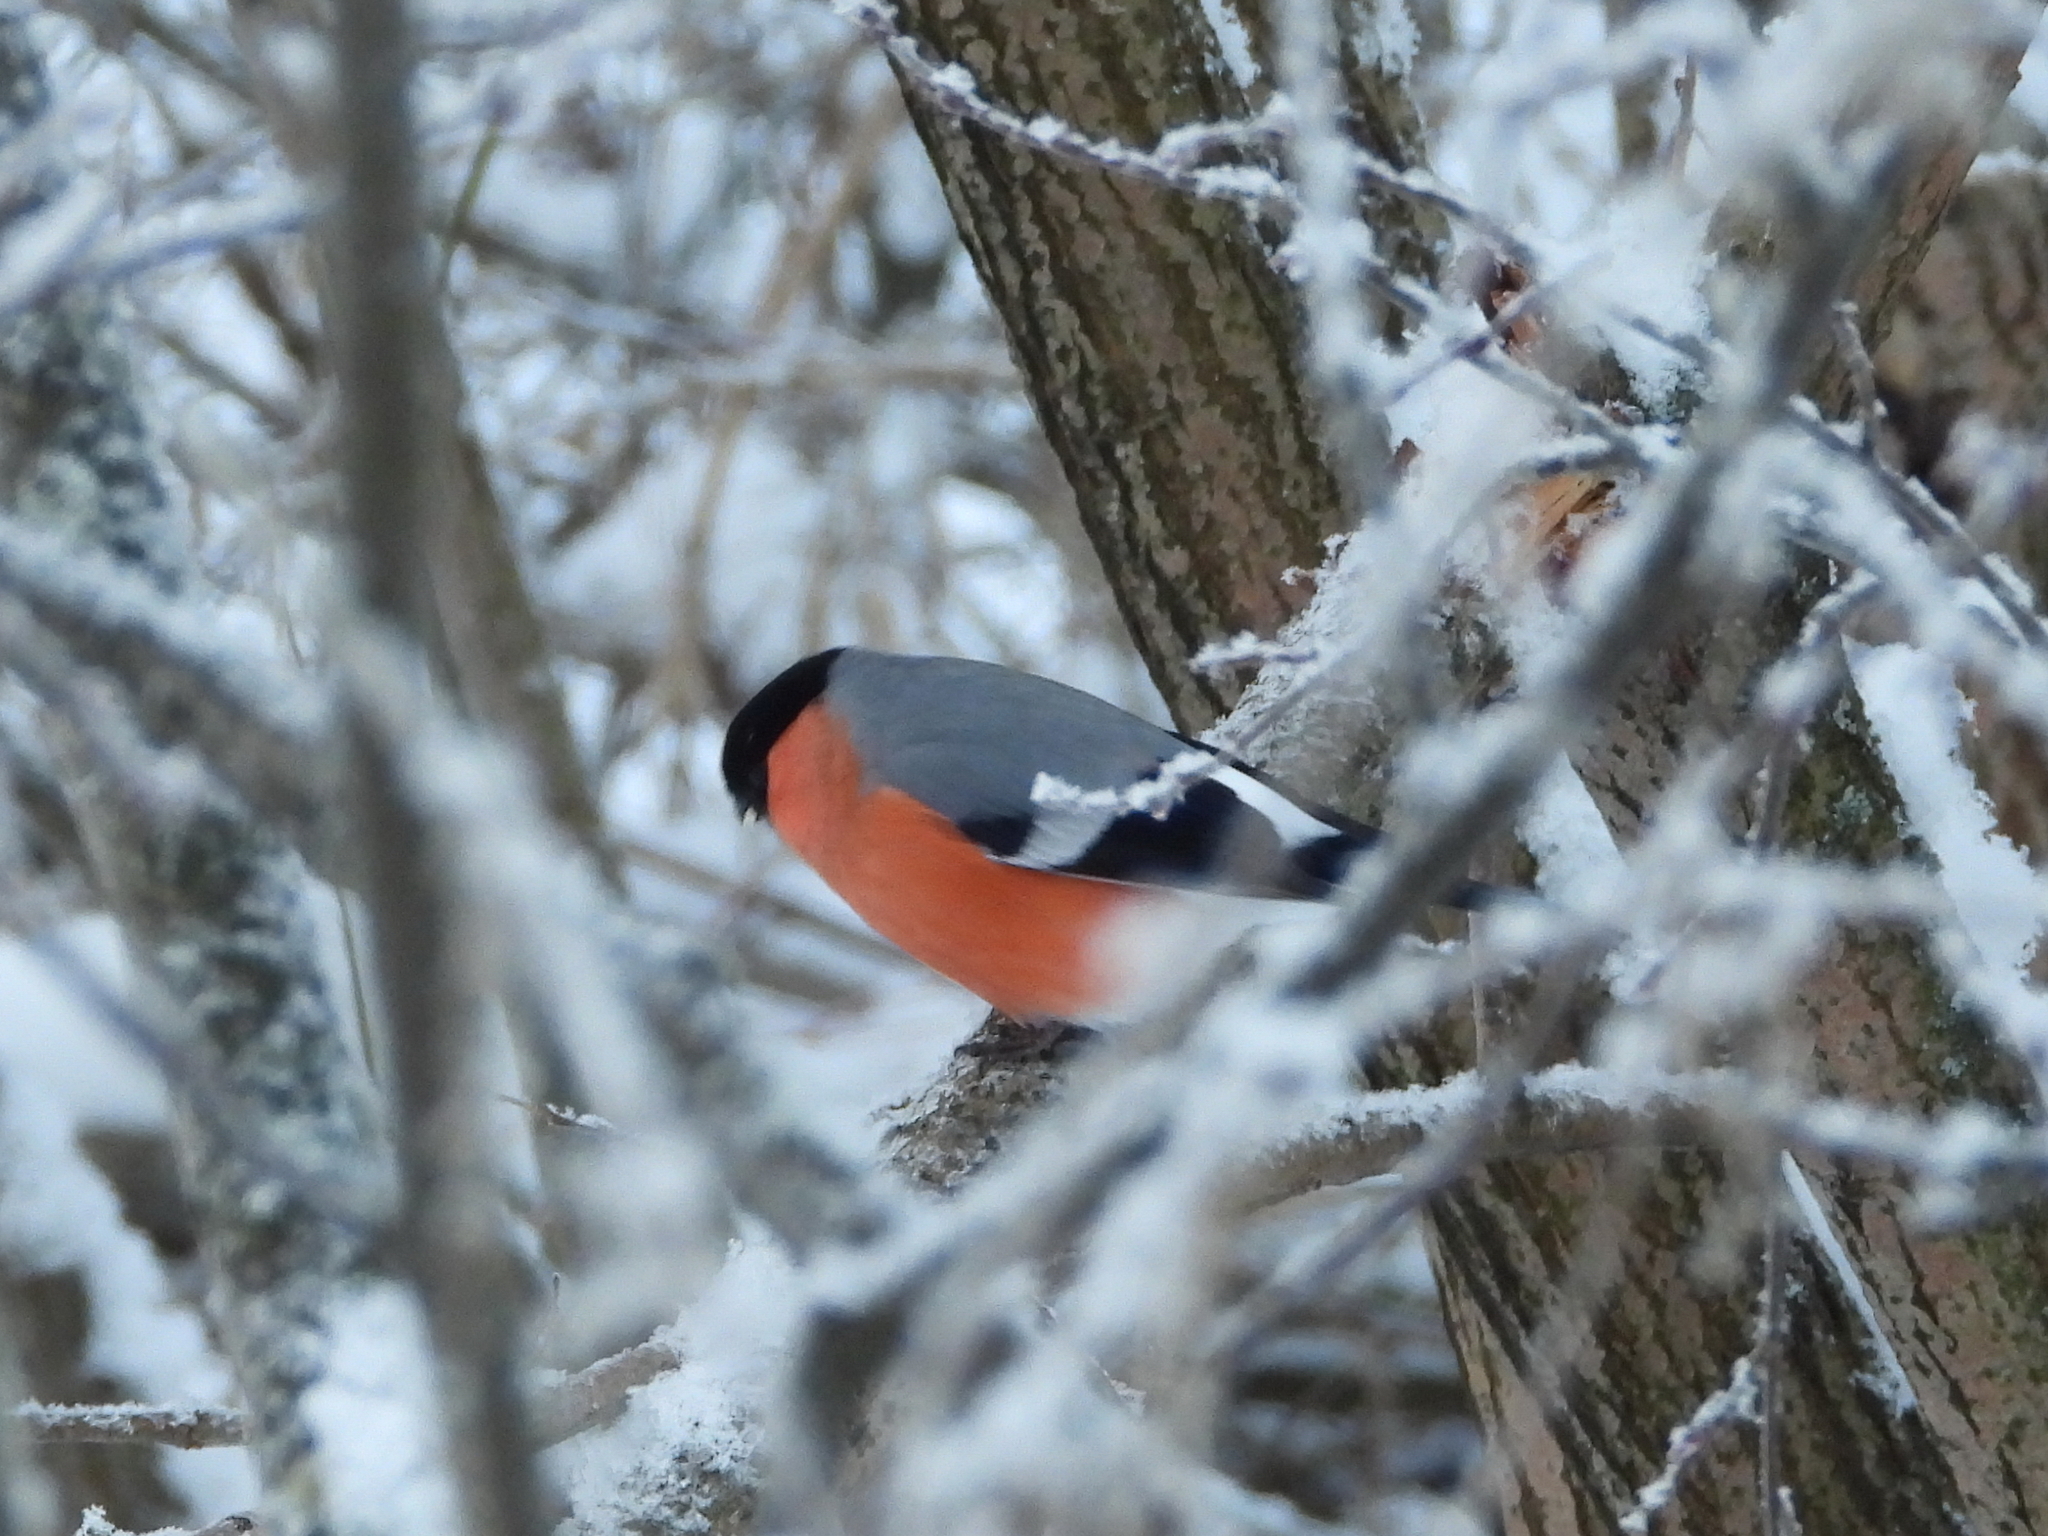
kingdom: Animalia
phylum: Chordata
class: Aves
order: Passeriformes
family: Fringillidae
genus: Pyrrhula
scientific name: Pyrrhula pyrrhula
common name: Eurasian bullfinch
